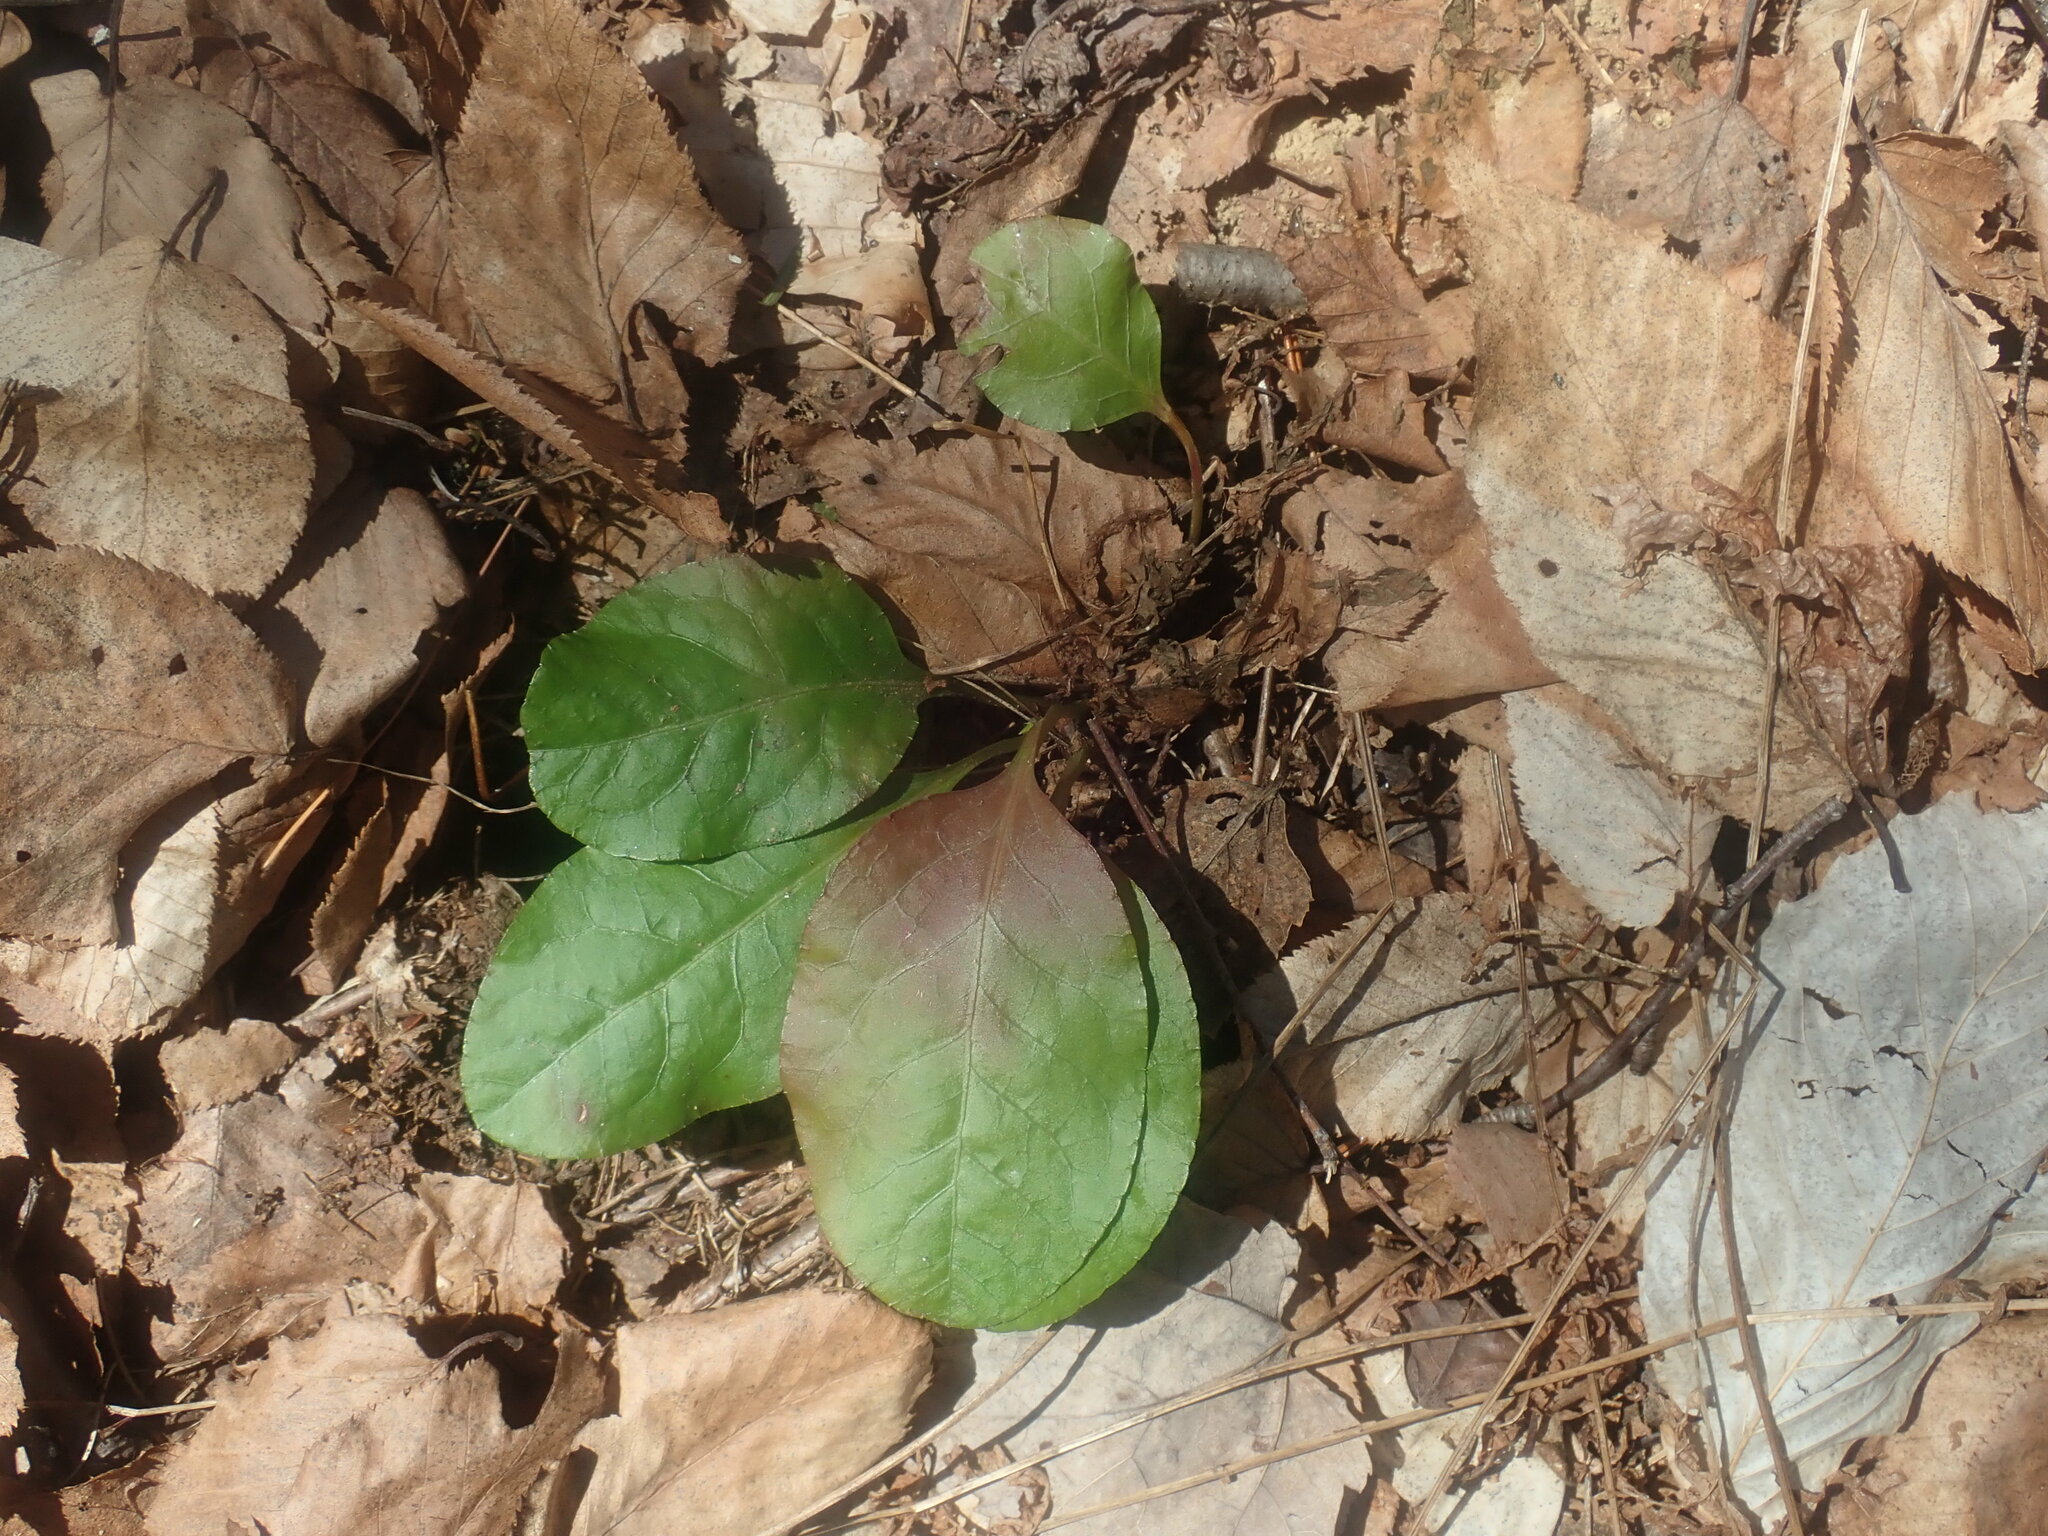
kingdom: Plantae
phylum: Tracheophyta
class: Magnoliopsida
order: Ericales
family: Ericaceae
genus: Pyrola
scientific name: Pyrola elliptica
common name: Shinleaf
